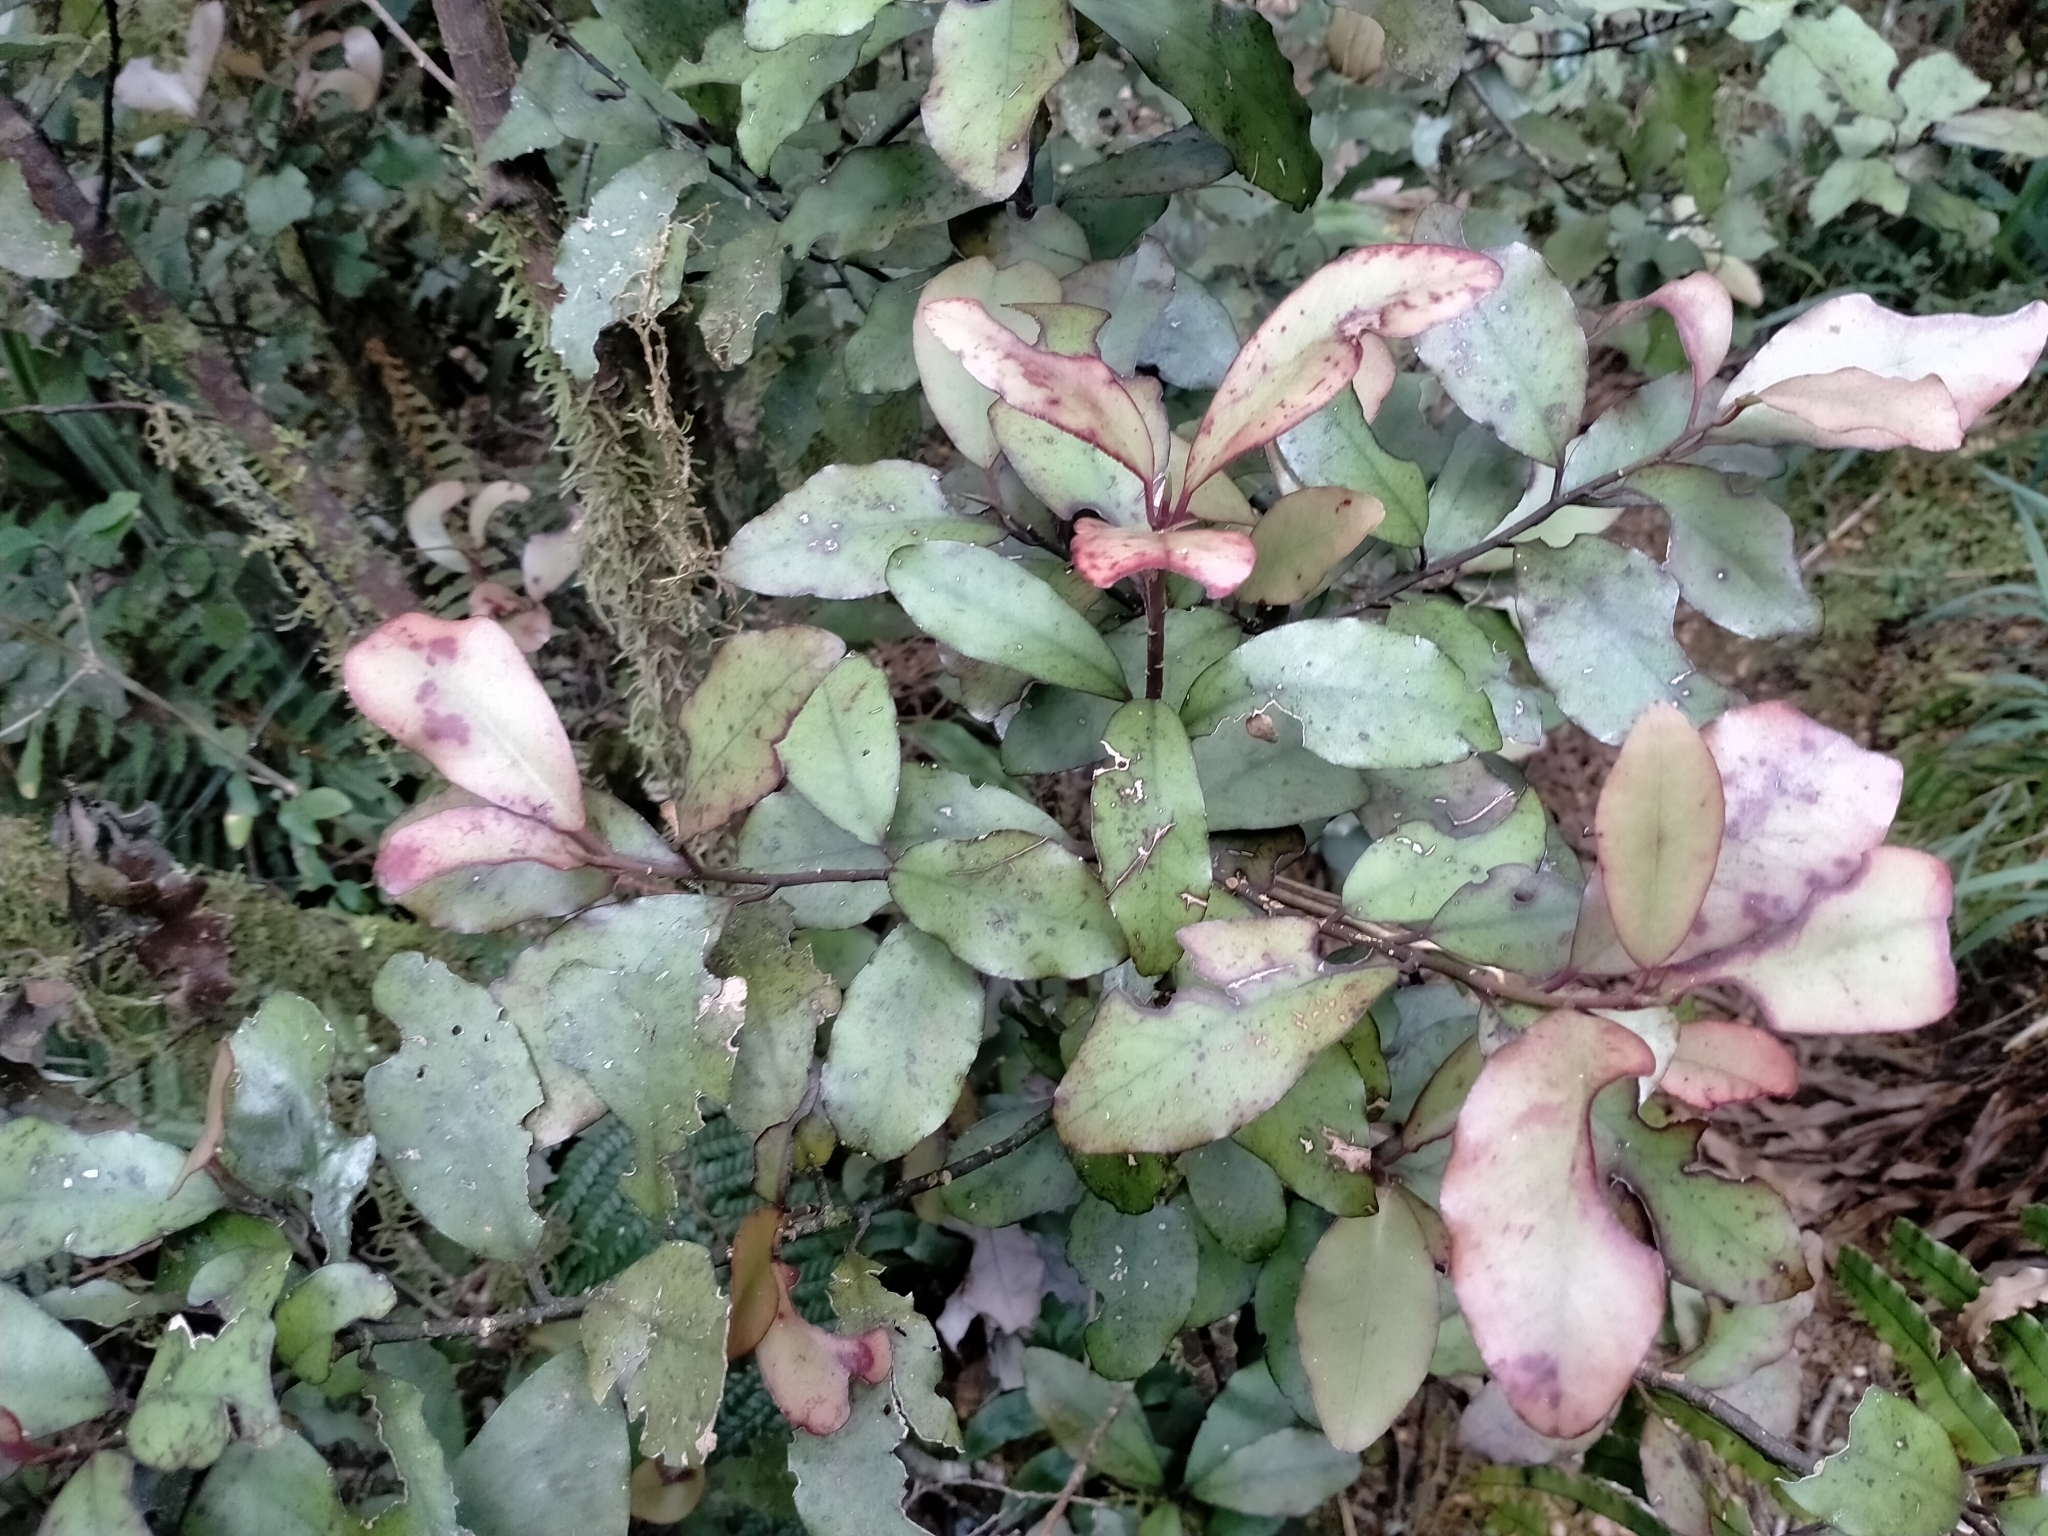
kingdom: Plantae
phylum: Tracheophyta
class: Magnoliopsida
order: Canellales
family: Winteraceae
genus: Pseudowintera
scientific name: Pseudowintera colorata
